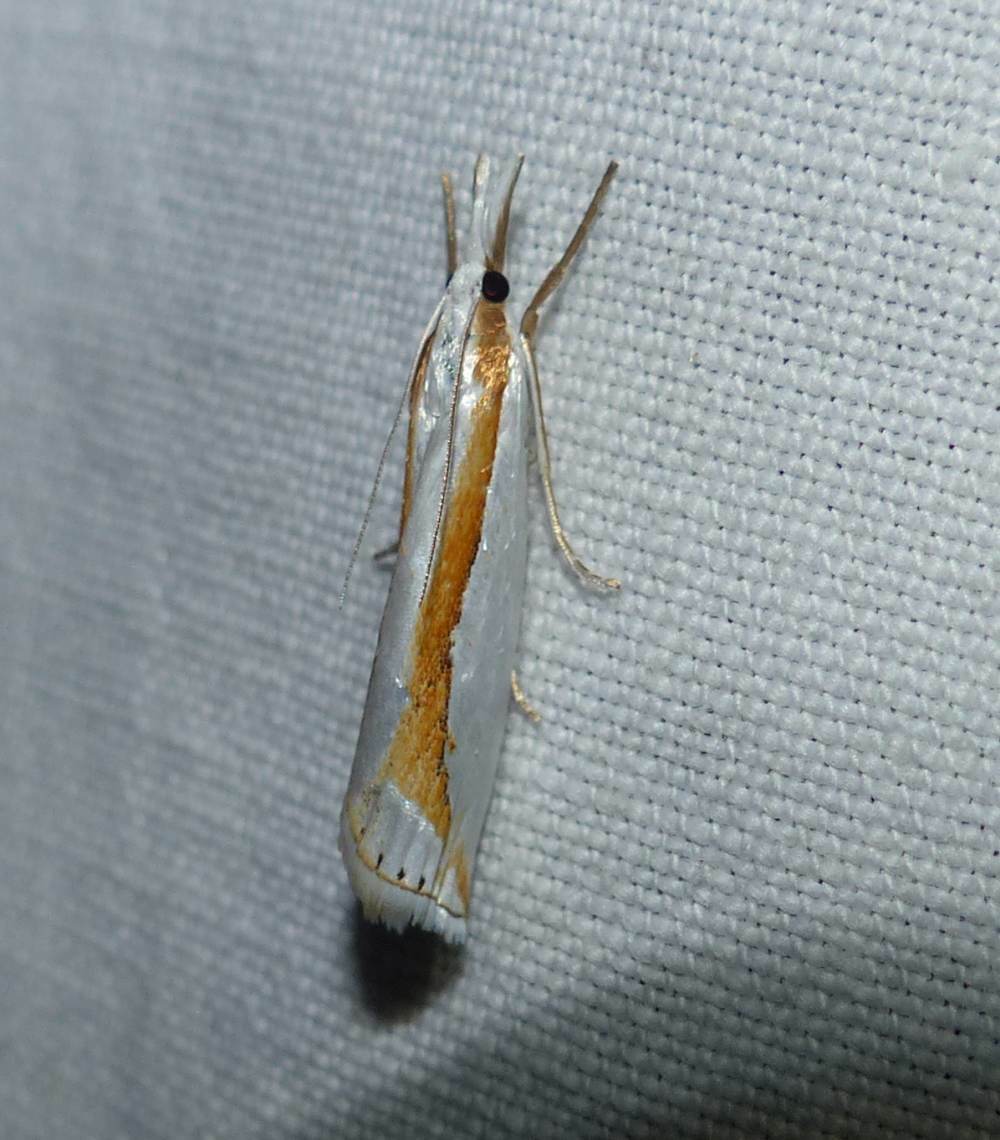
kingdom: Animalia
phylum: Arthropoda
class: Insecta
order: Lepidoptera
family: Crambidae
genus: Crambus
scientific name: Crambus girardellus
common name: Girard's grass-veneer
